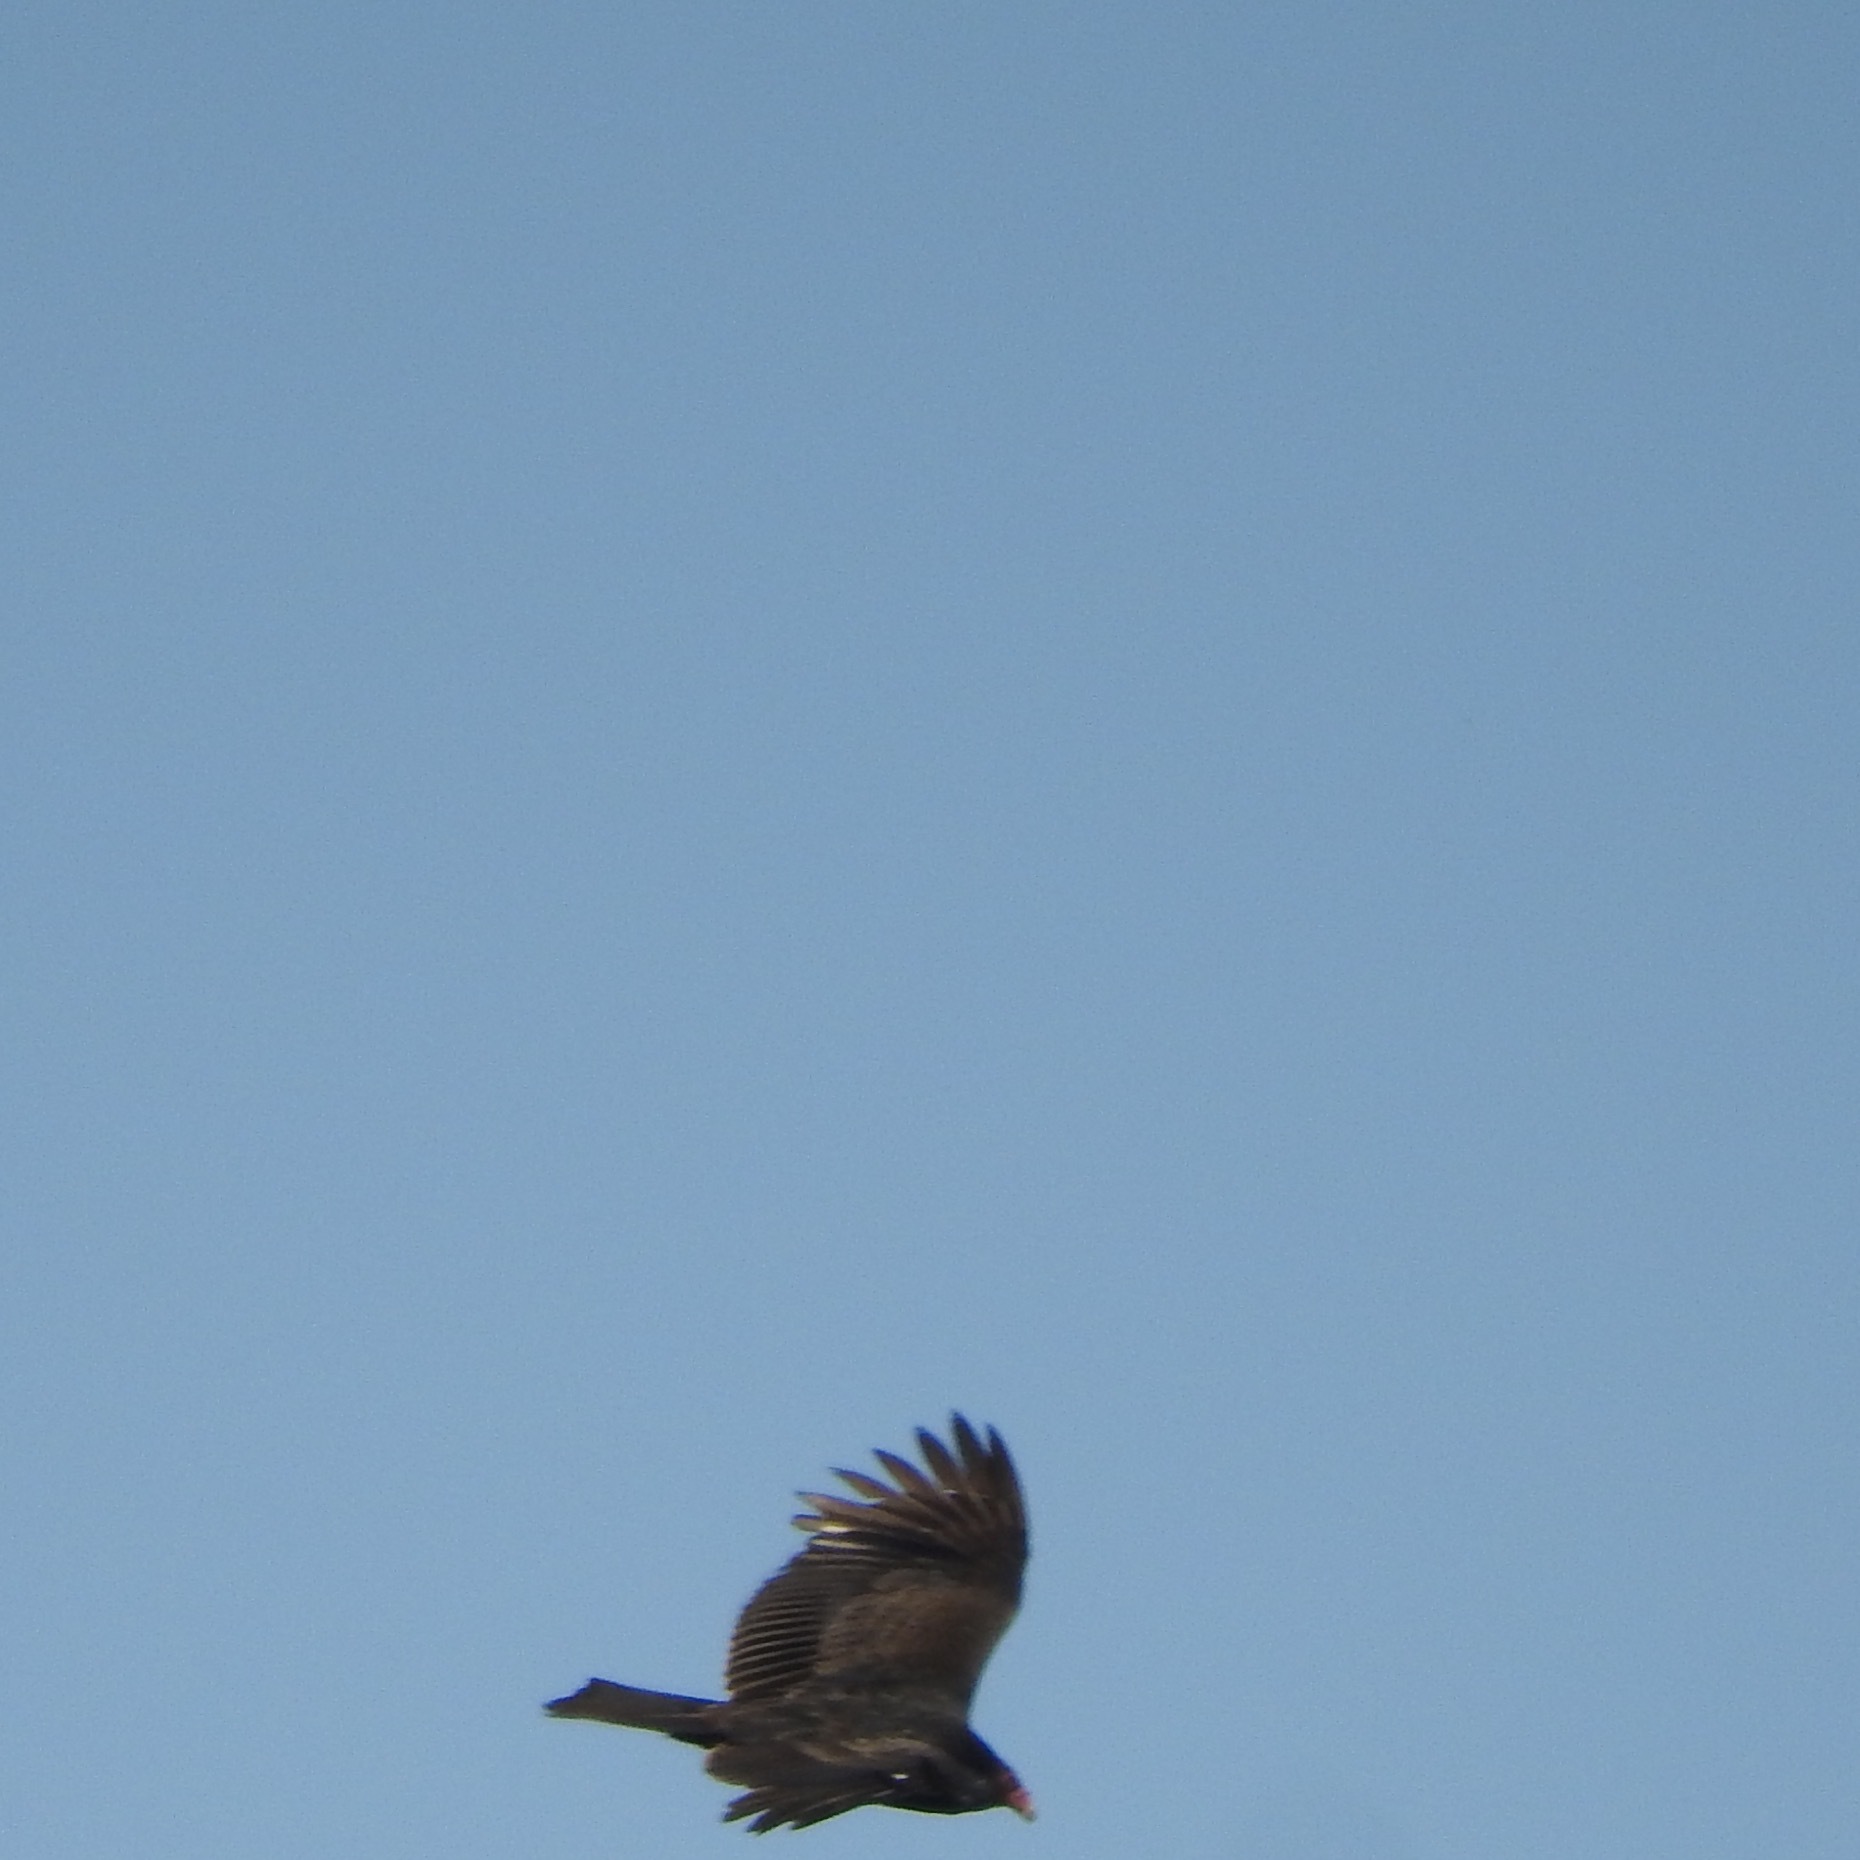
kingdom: Animalia
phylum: Chordata
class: Aves
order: Accipitriformes
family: Cathartidae
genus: Cathartes
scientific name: Cathartes aura
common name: Turkey vulture
